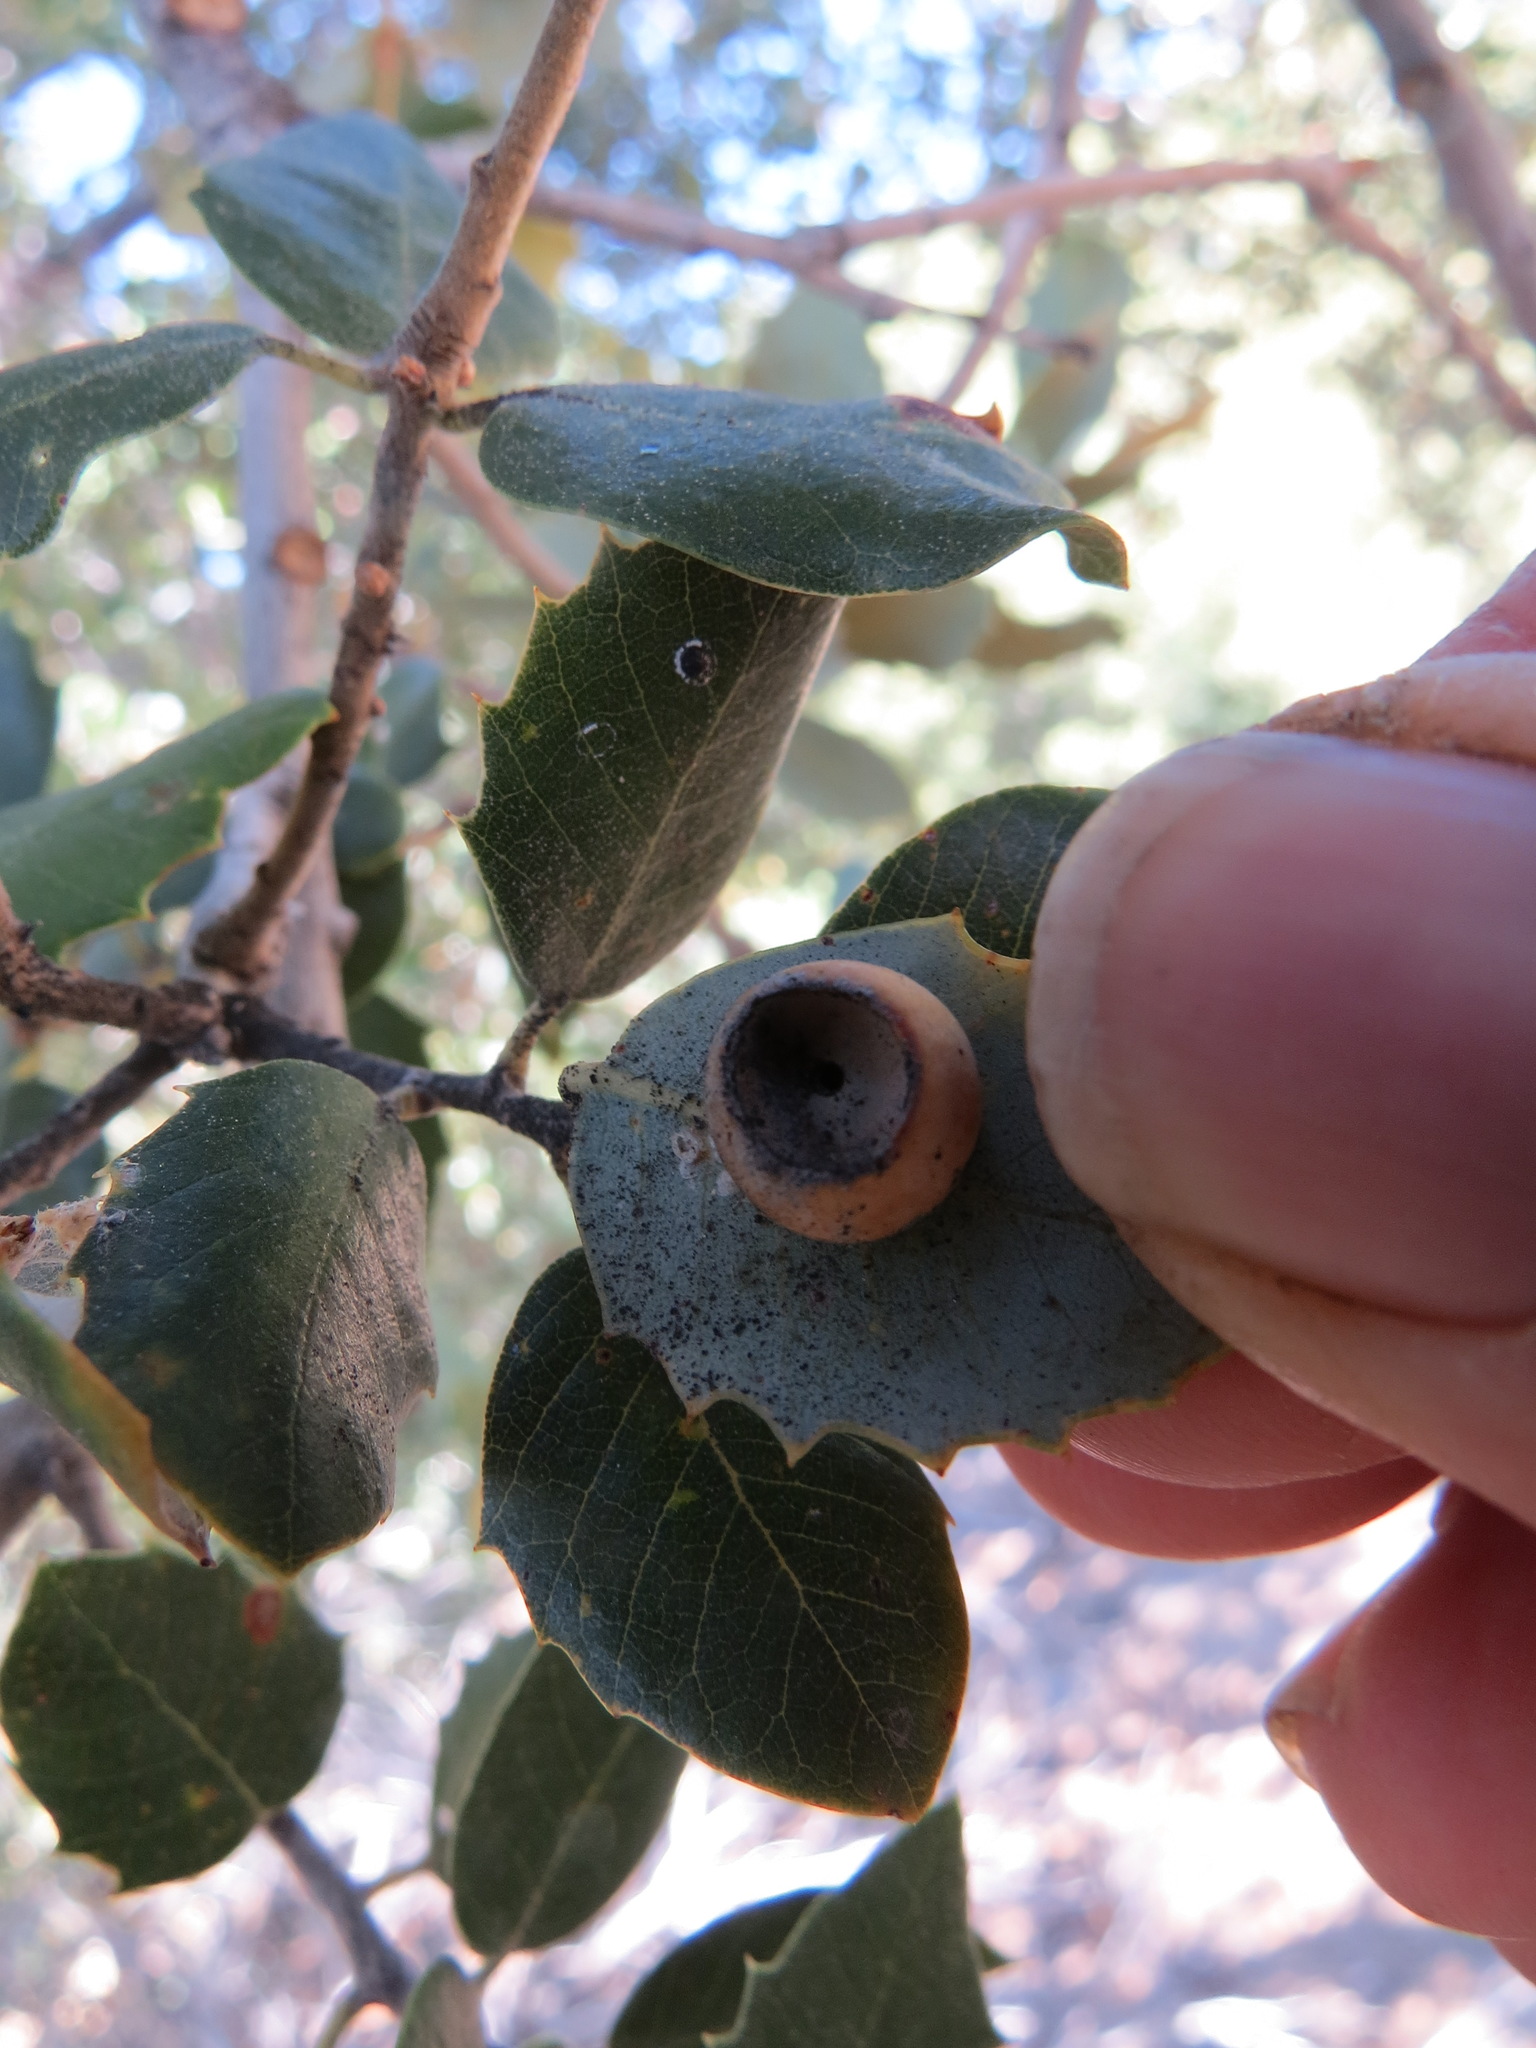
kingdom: Animalia
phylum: Arthropoda
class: Insecta
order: Hymenoptera
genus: Paracraspis
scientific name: Paracraspis
